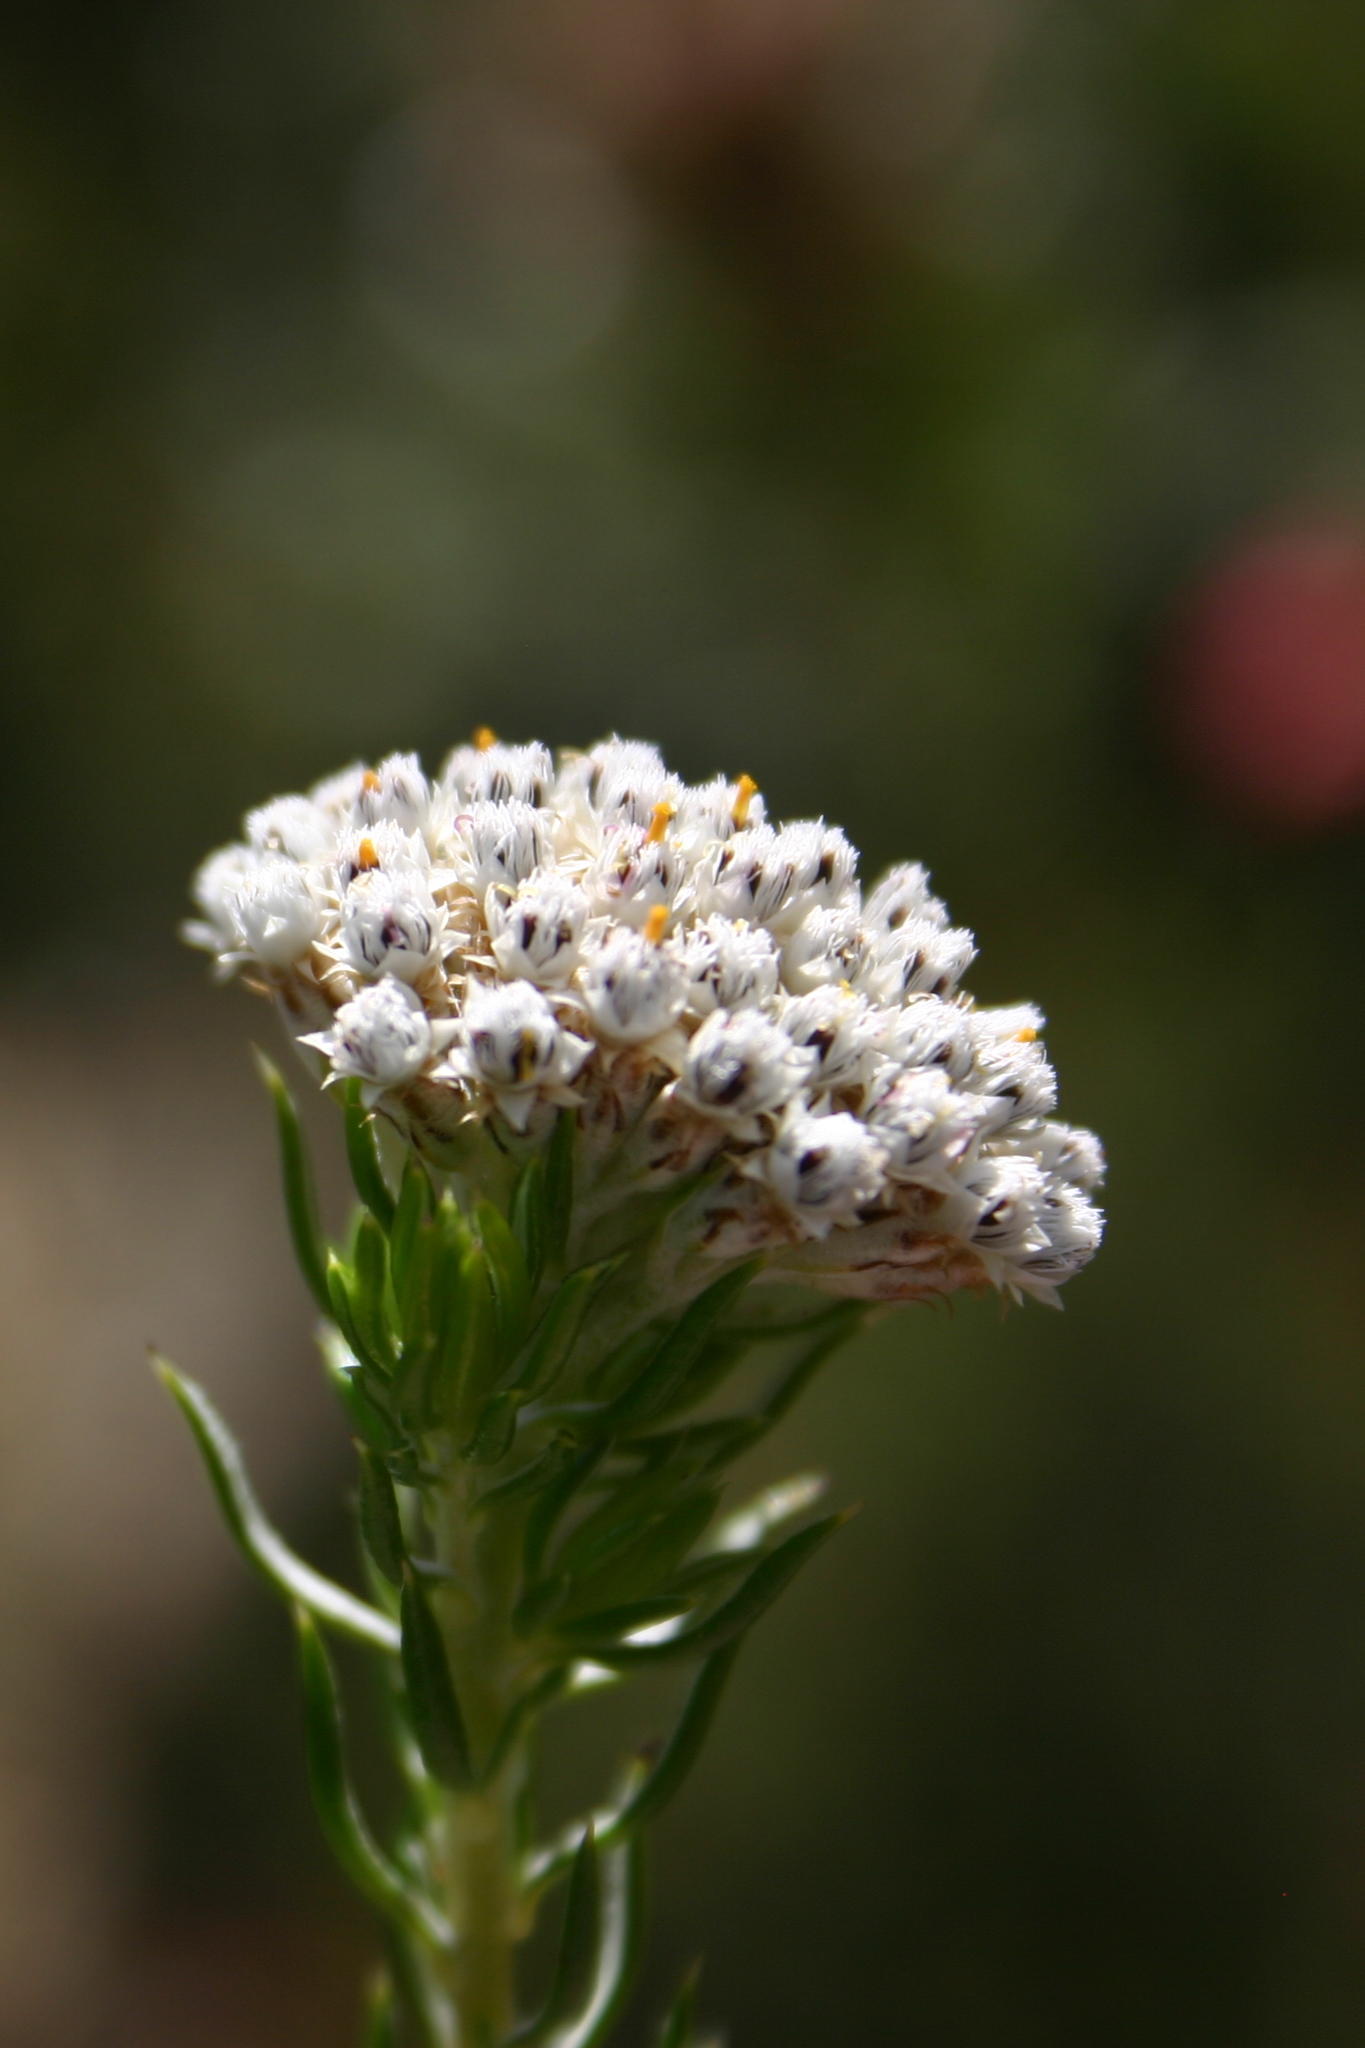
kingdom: Plantae
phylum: Tracheophyta
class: Magnoliopsida
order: Asterales
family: Asteraceae
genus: Metalasia
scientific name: Metalasia galpinii
